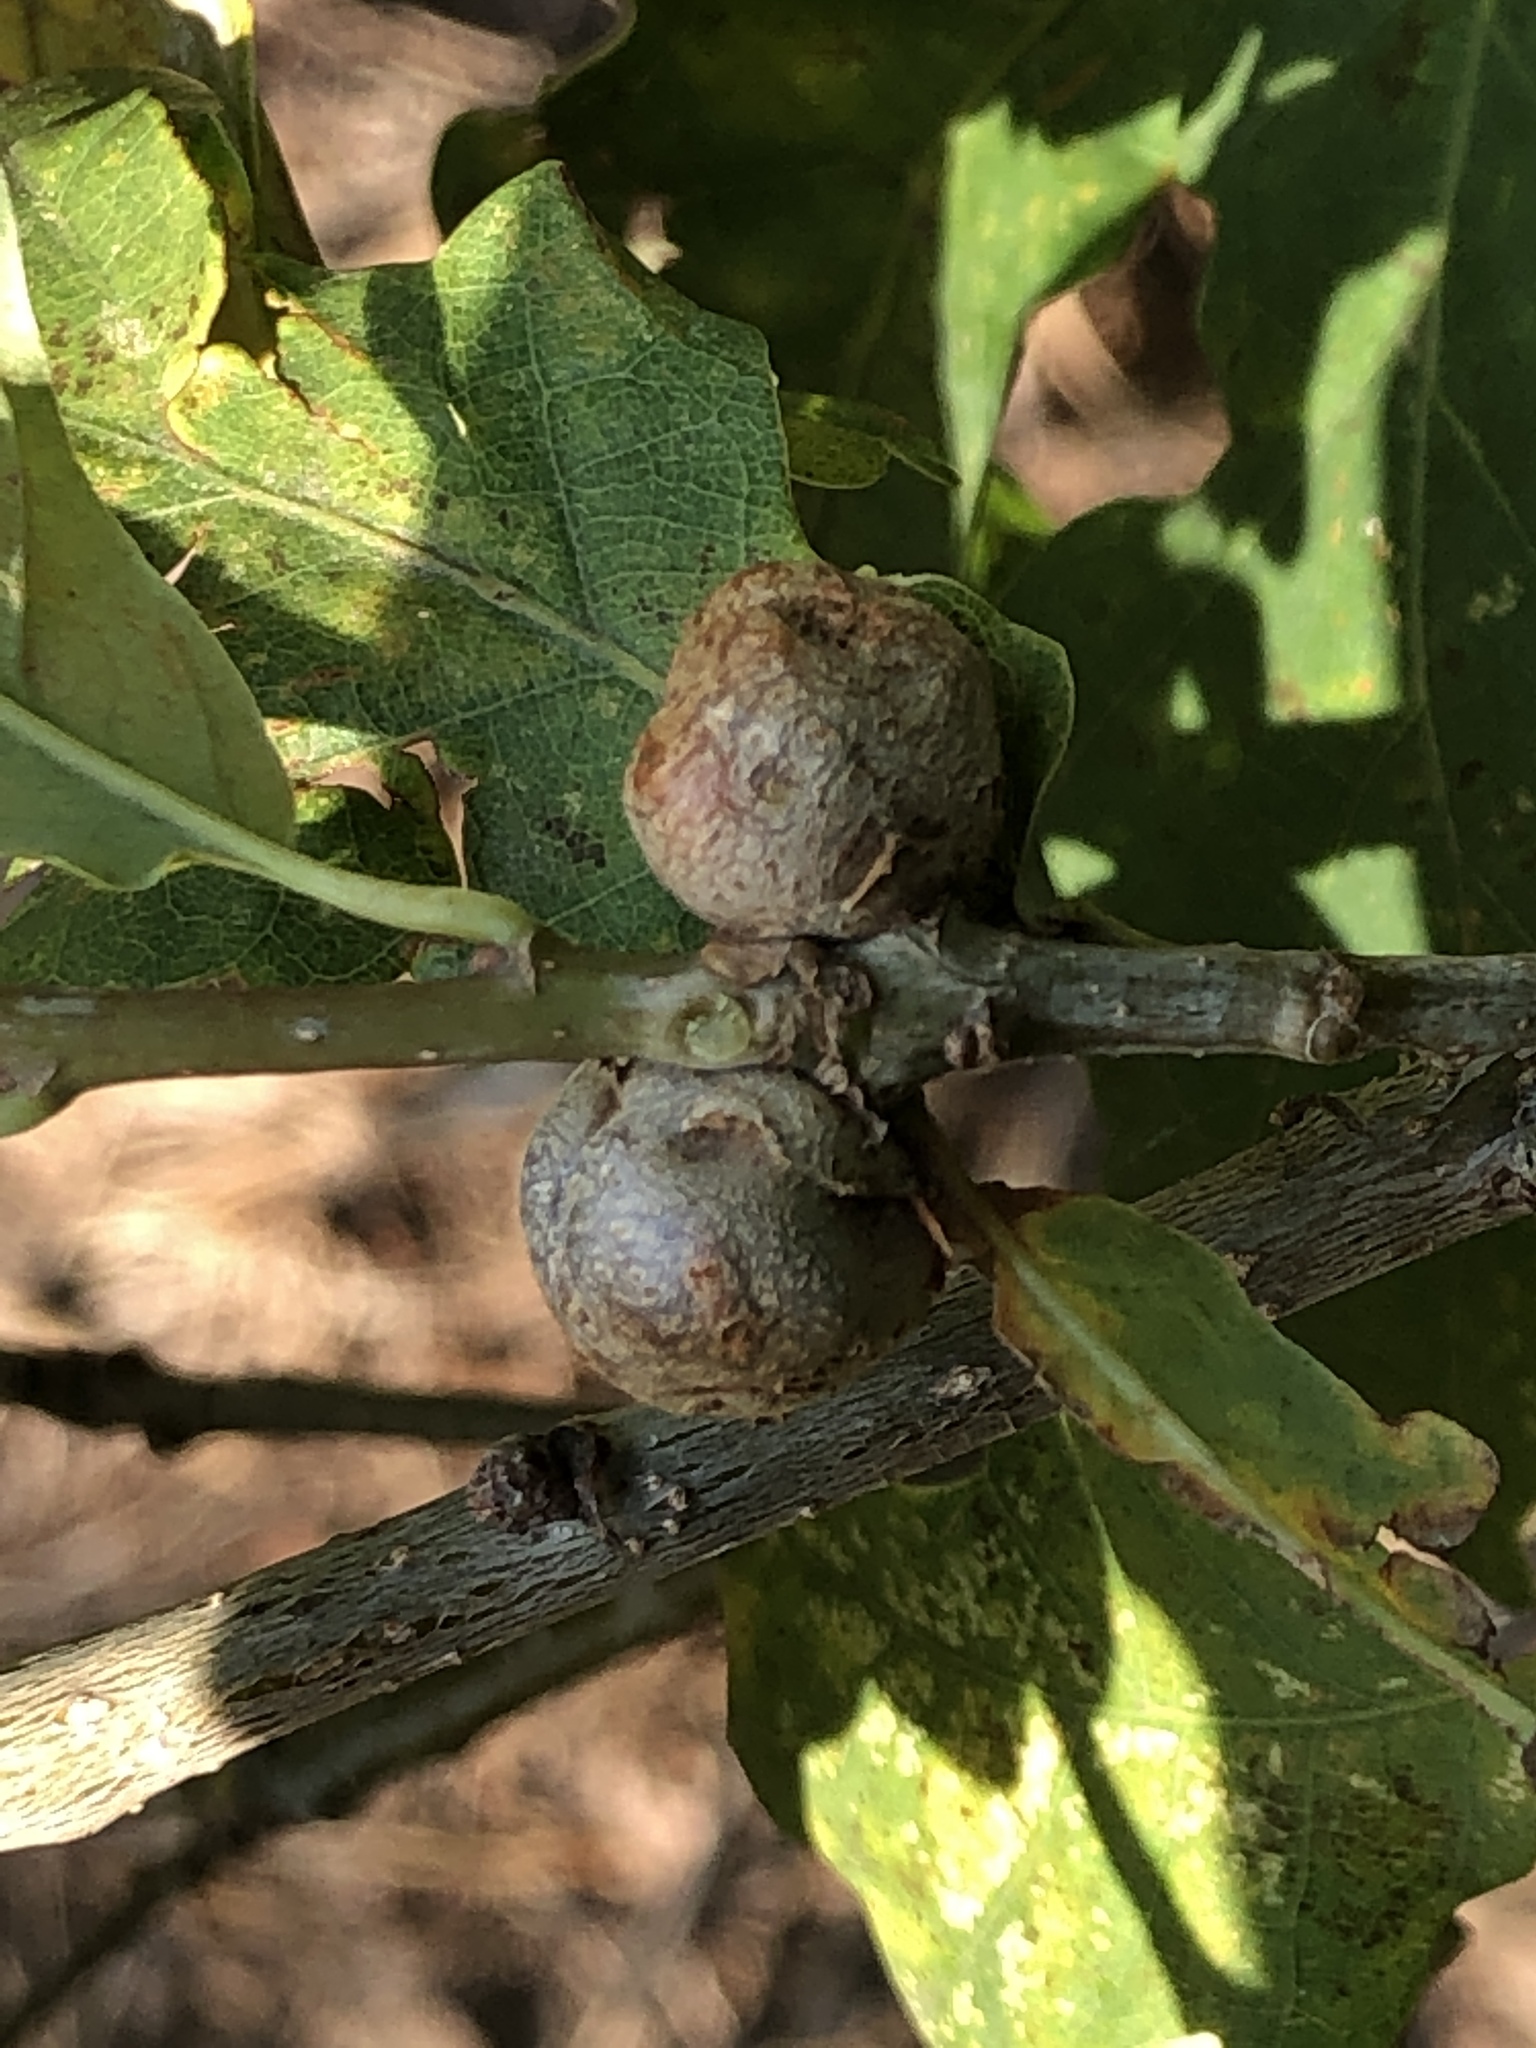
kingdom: Animalia
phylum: Arthropoda
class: Insecta
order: Hymenoptera
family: Cynipidae
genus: Andricus
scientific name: Andricus lignicolus
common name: Cola-nut gall
